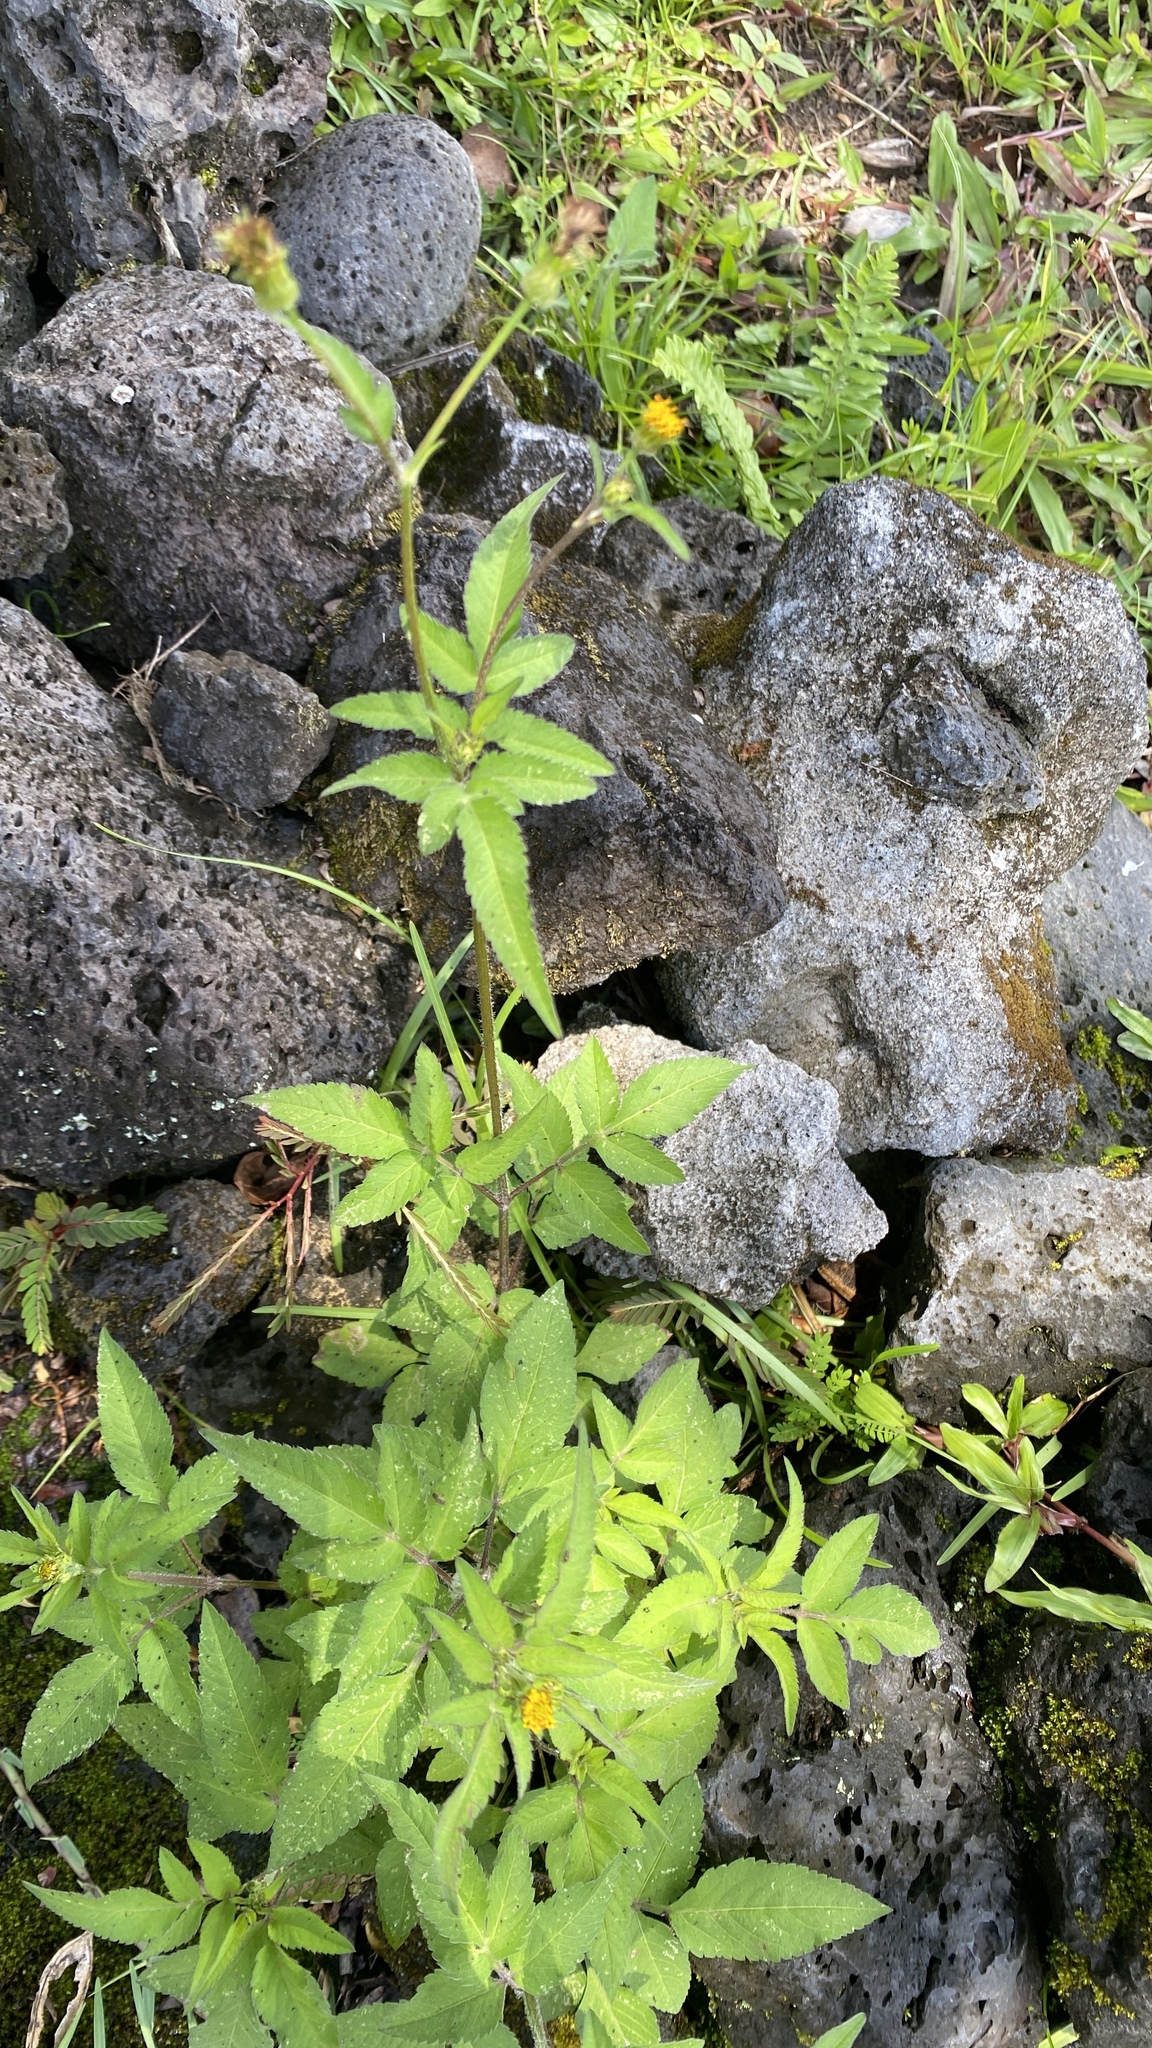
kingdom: Plantae
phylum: Tracheophyta
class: Magnoliopsida
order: Asterales
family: Asteraceae
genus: Bidens
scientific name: Bidens pilosa
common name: Black-jack
